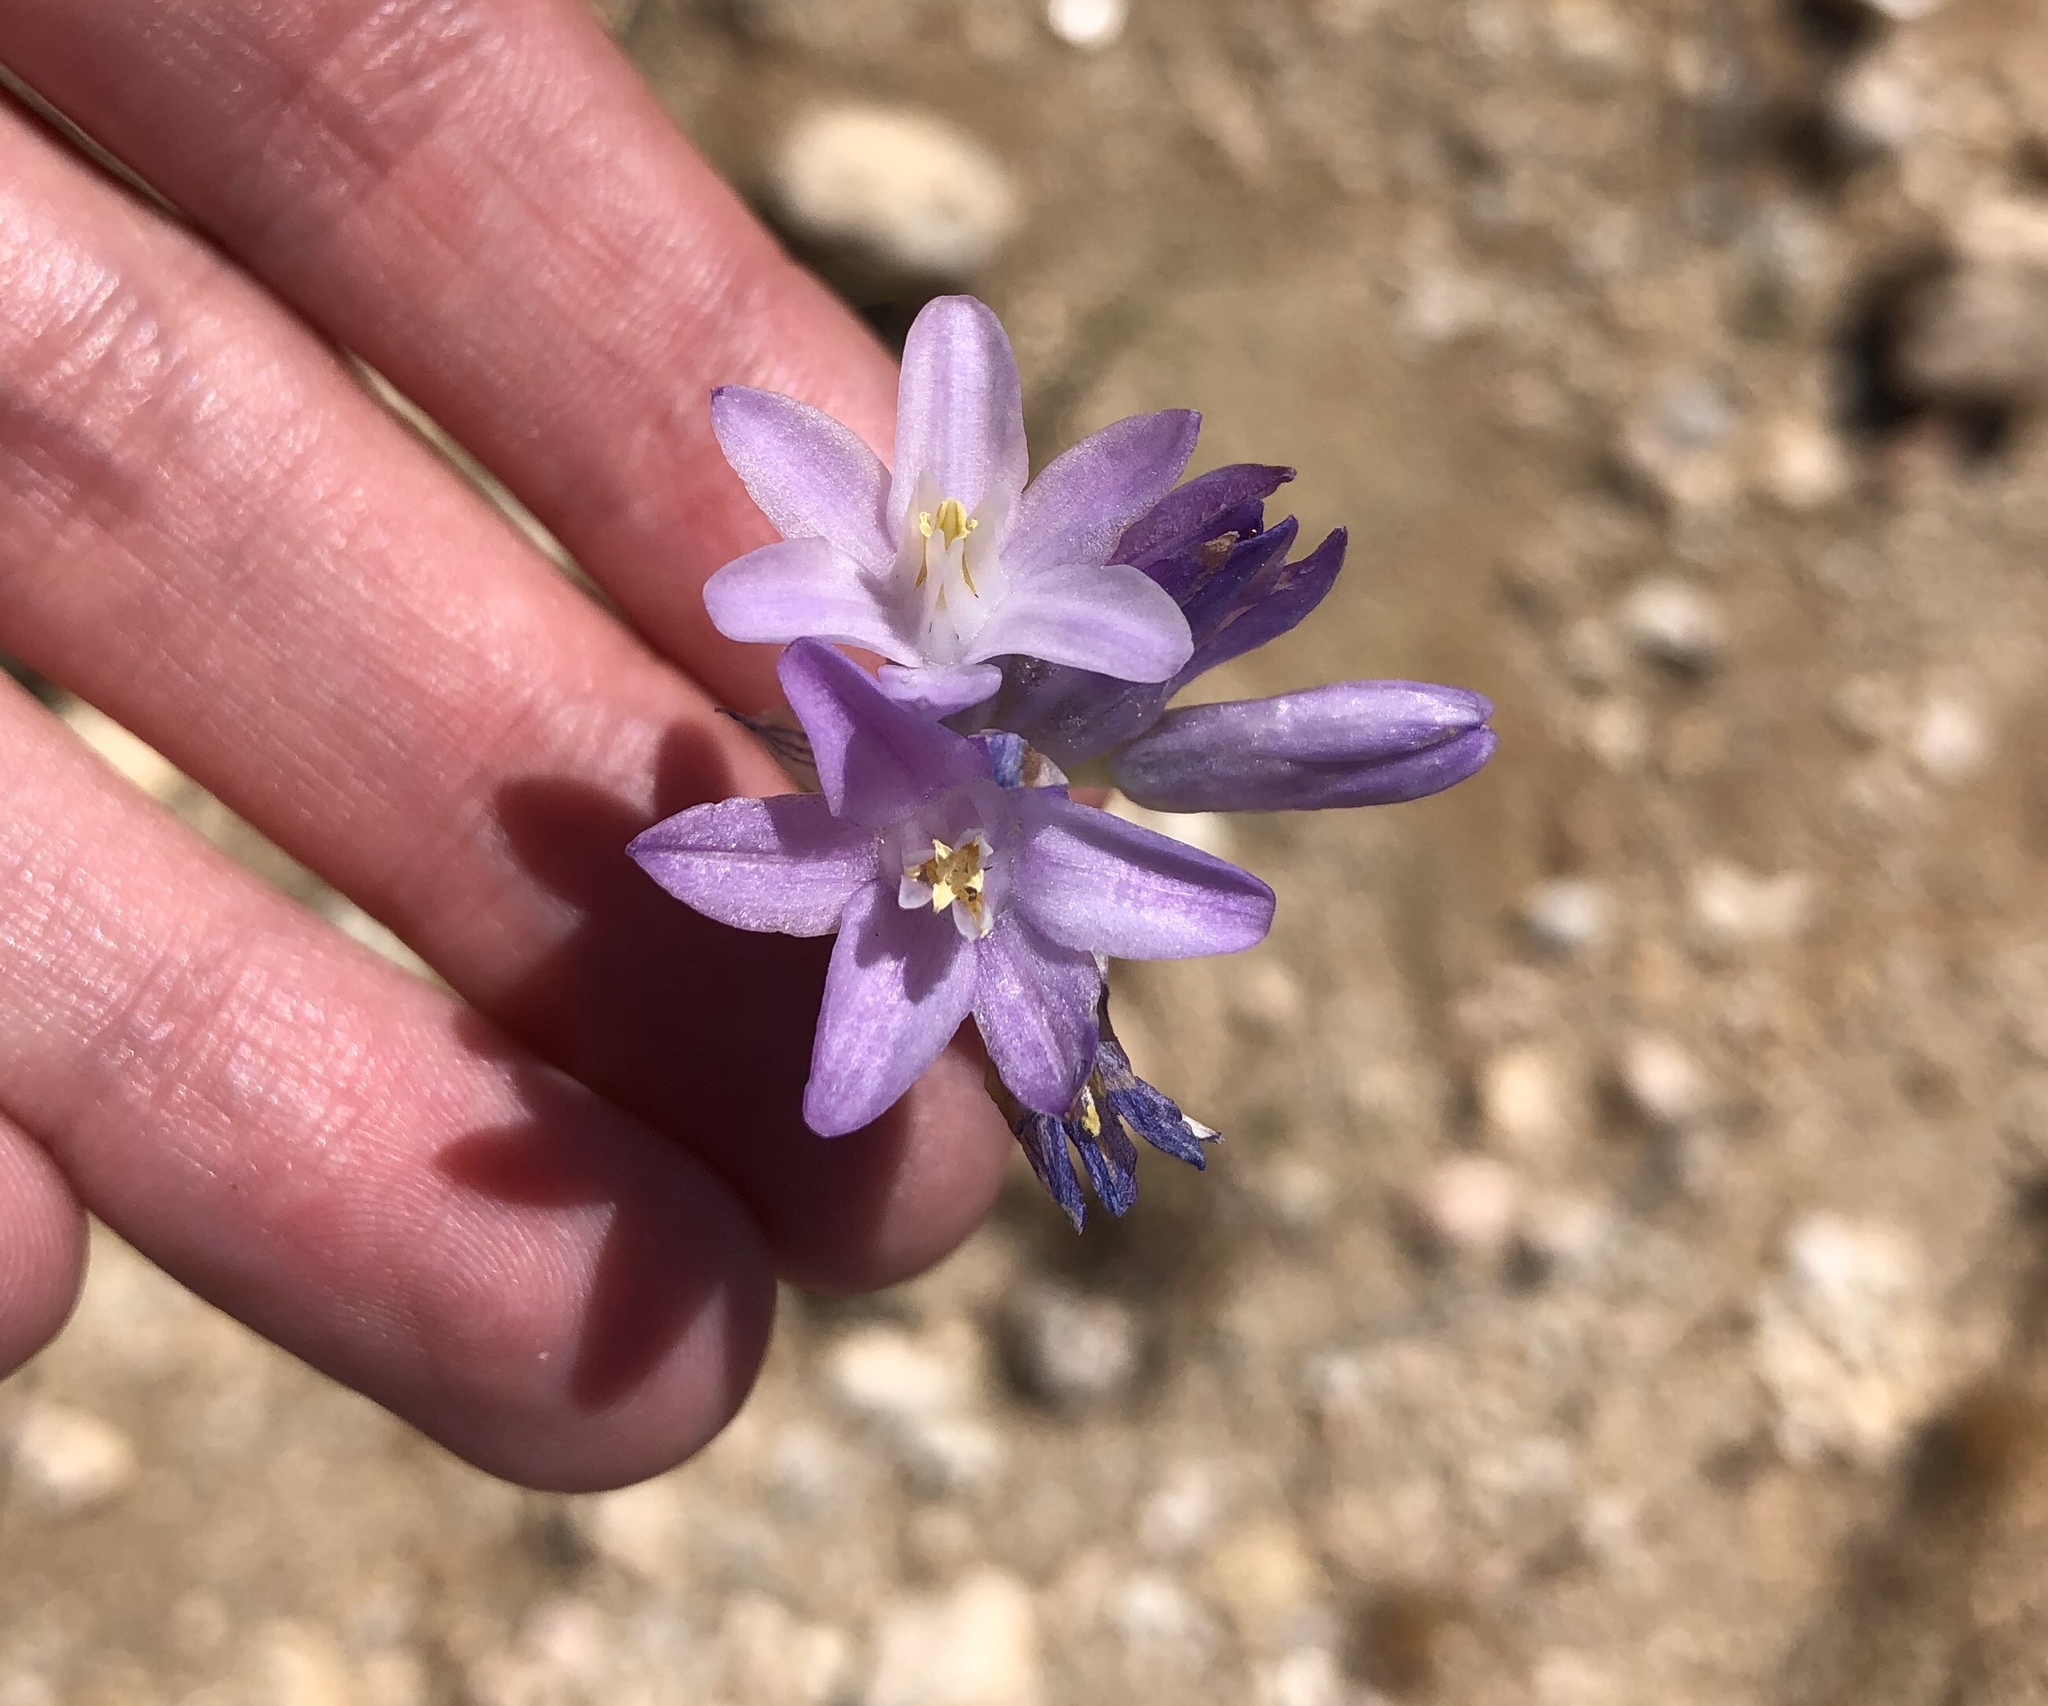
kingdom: Plantae
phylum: Tracheophyta
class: Liliopsida
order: Asparagales
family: Asparagaceae
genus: Dipterostemon
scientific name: Dipterostemon capitatus
